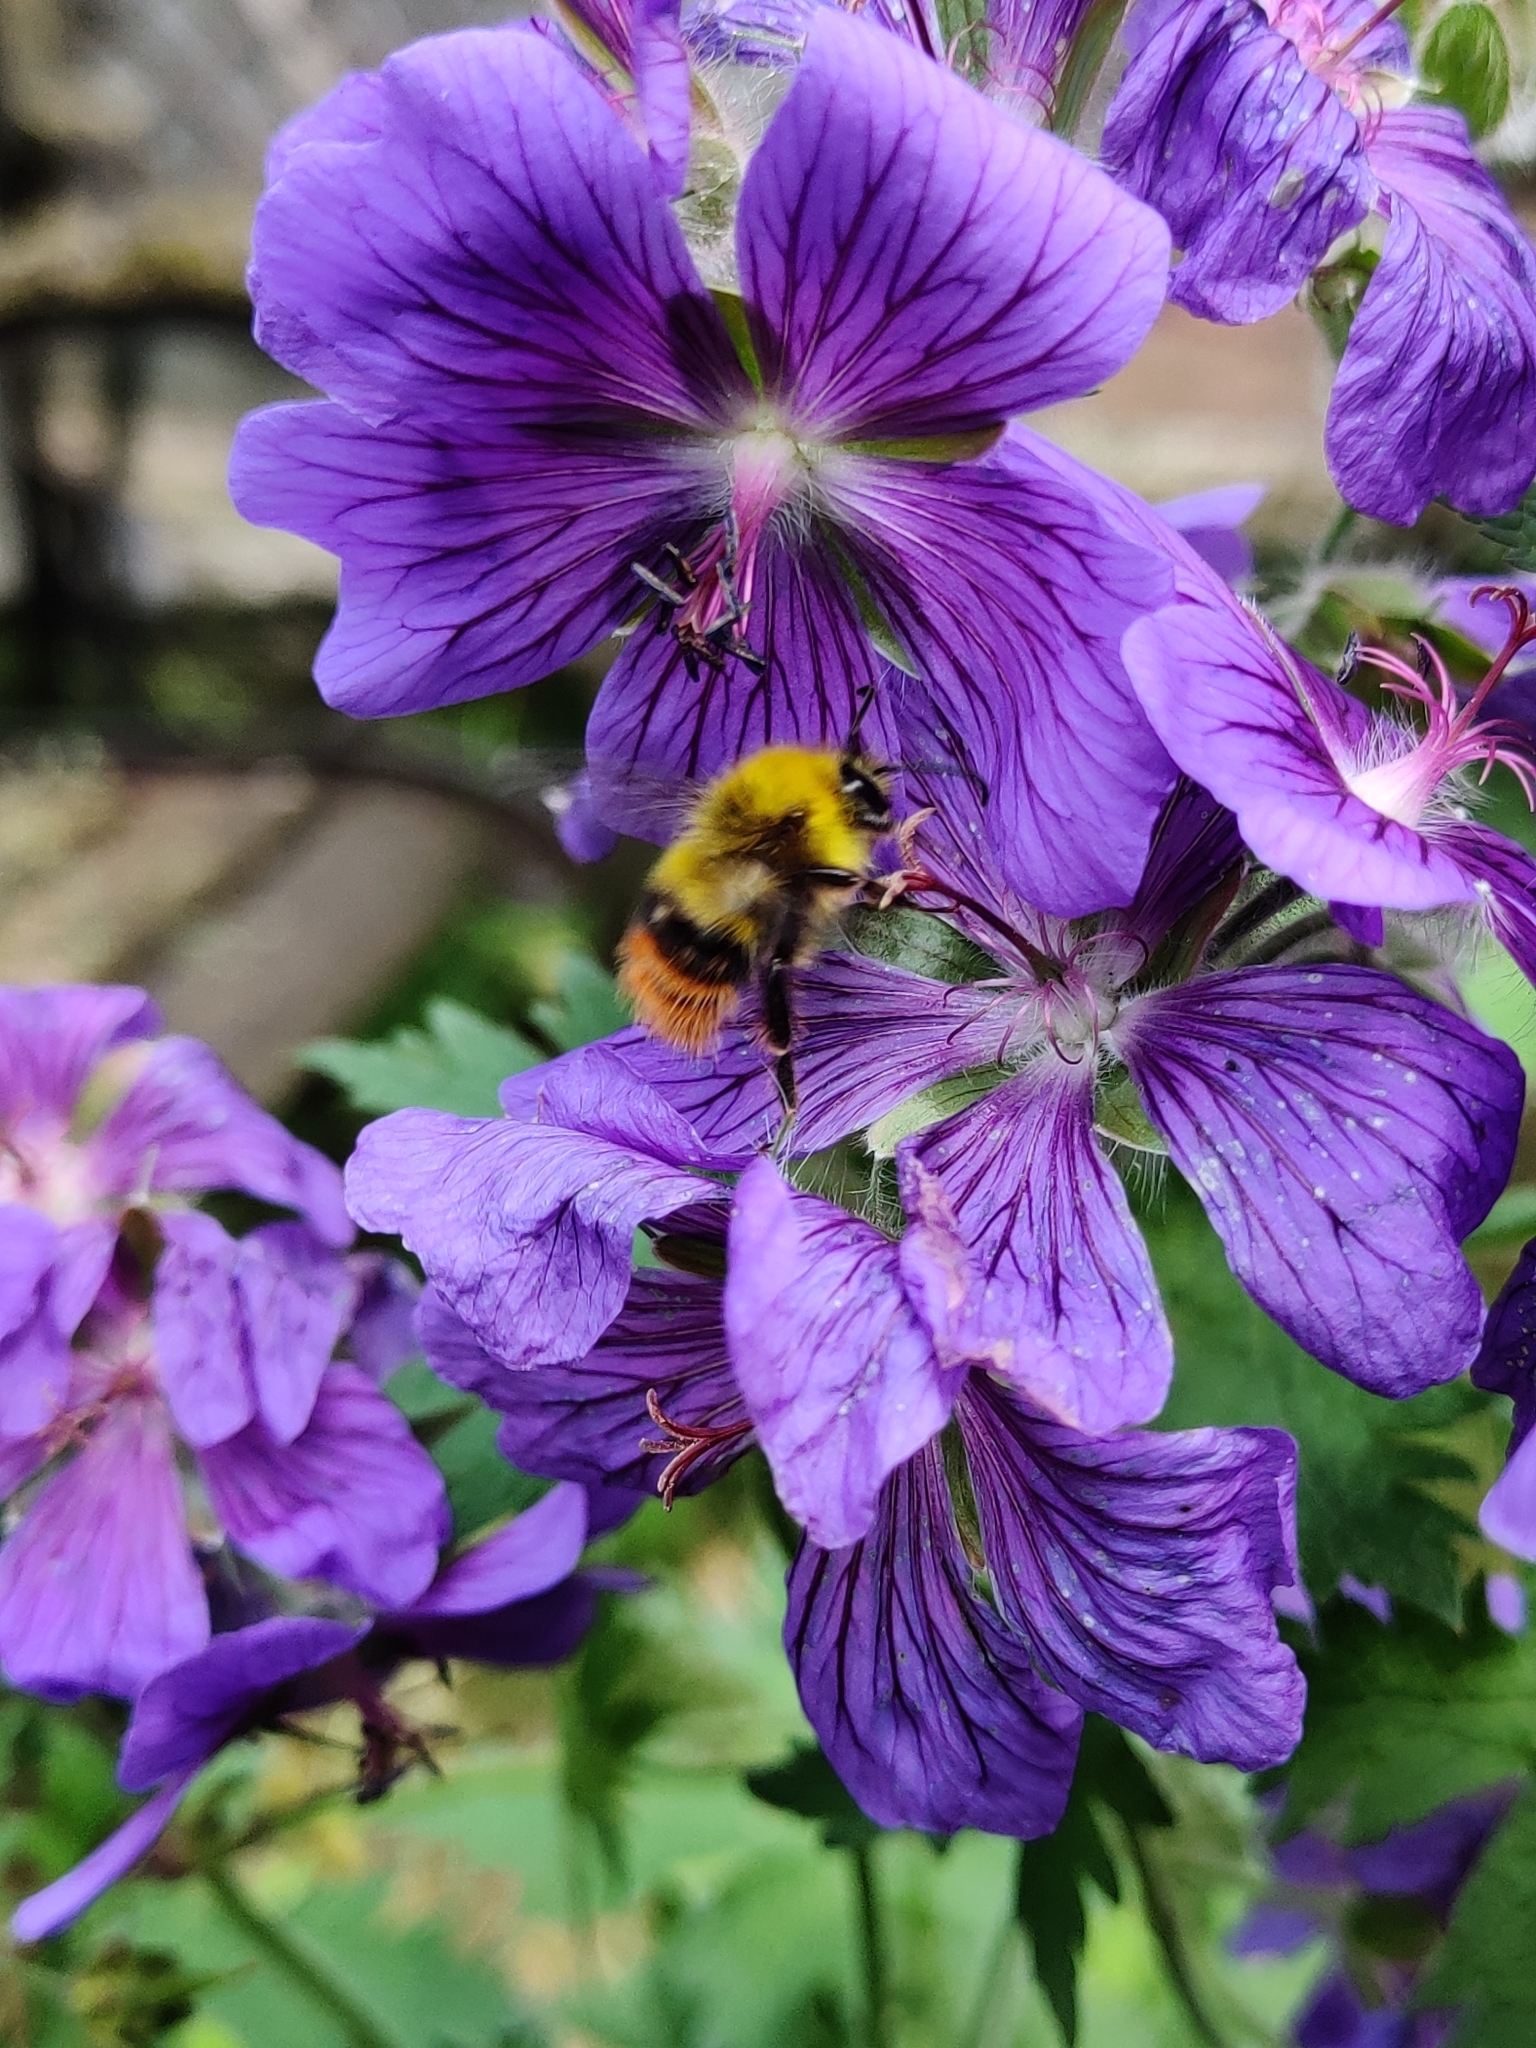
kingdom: Animalia
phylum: Arthropoda
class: Insecta
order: Hymenoptera
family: Apidae
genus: Bombus
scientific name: Bombus pratorum
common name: Early humble-bee
